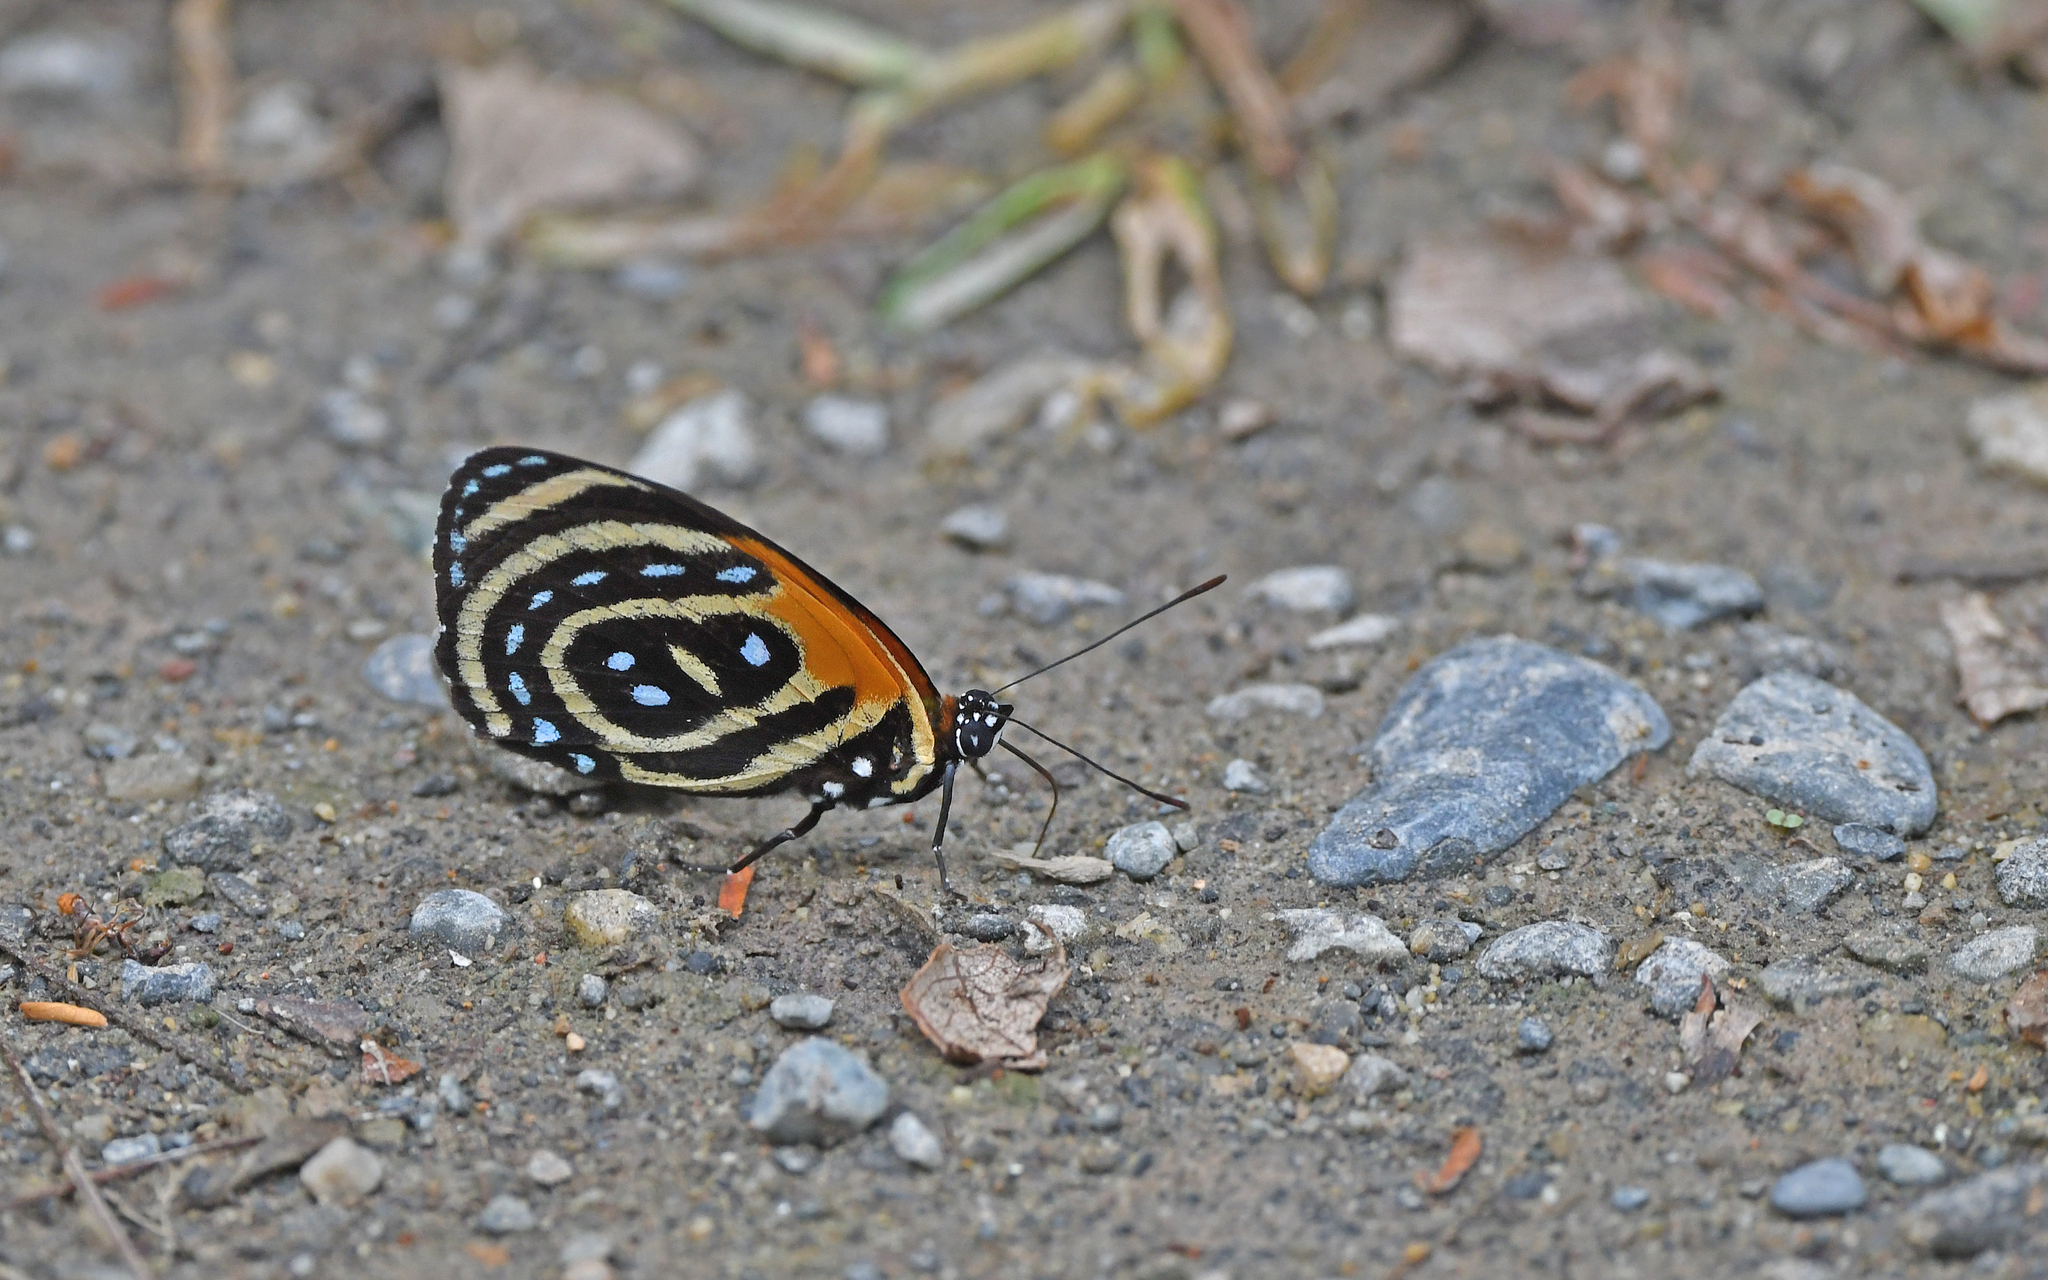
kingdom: Animalia
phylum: Arthropoda
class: Insecta
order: Lepidoptera
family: Nymphalidae
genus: Catagramma
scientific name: Catagramma cynosura
